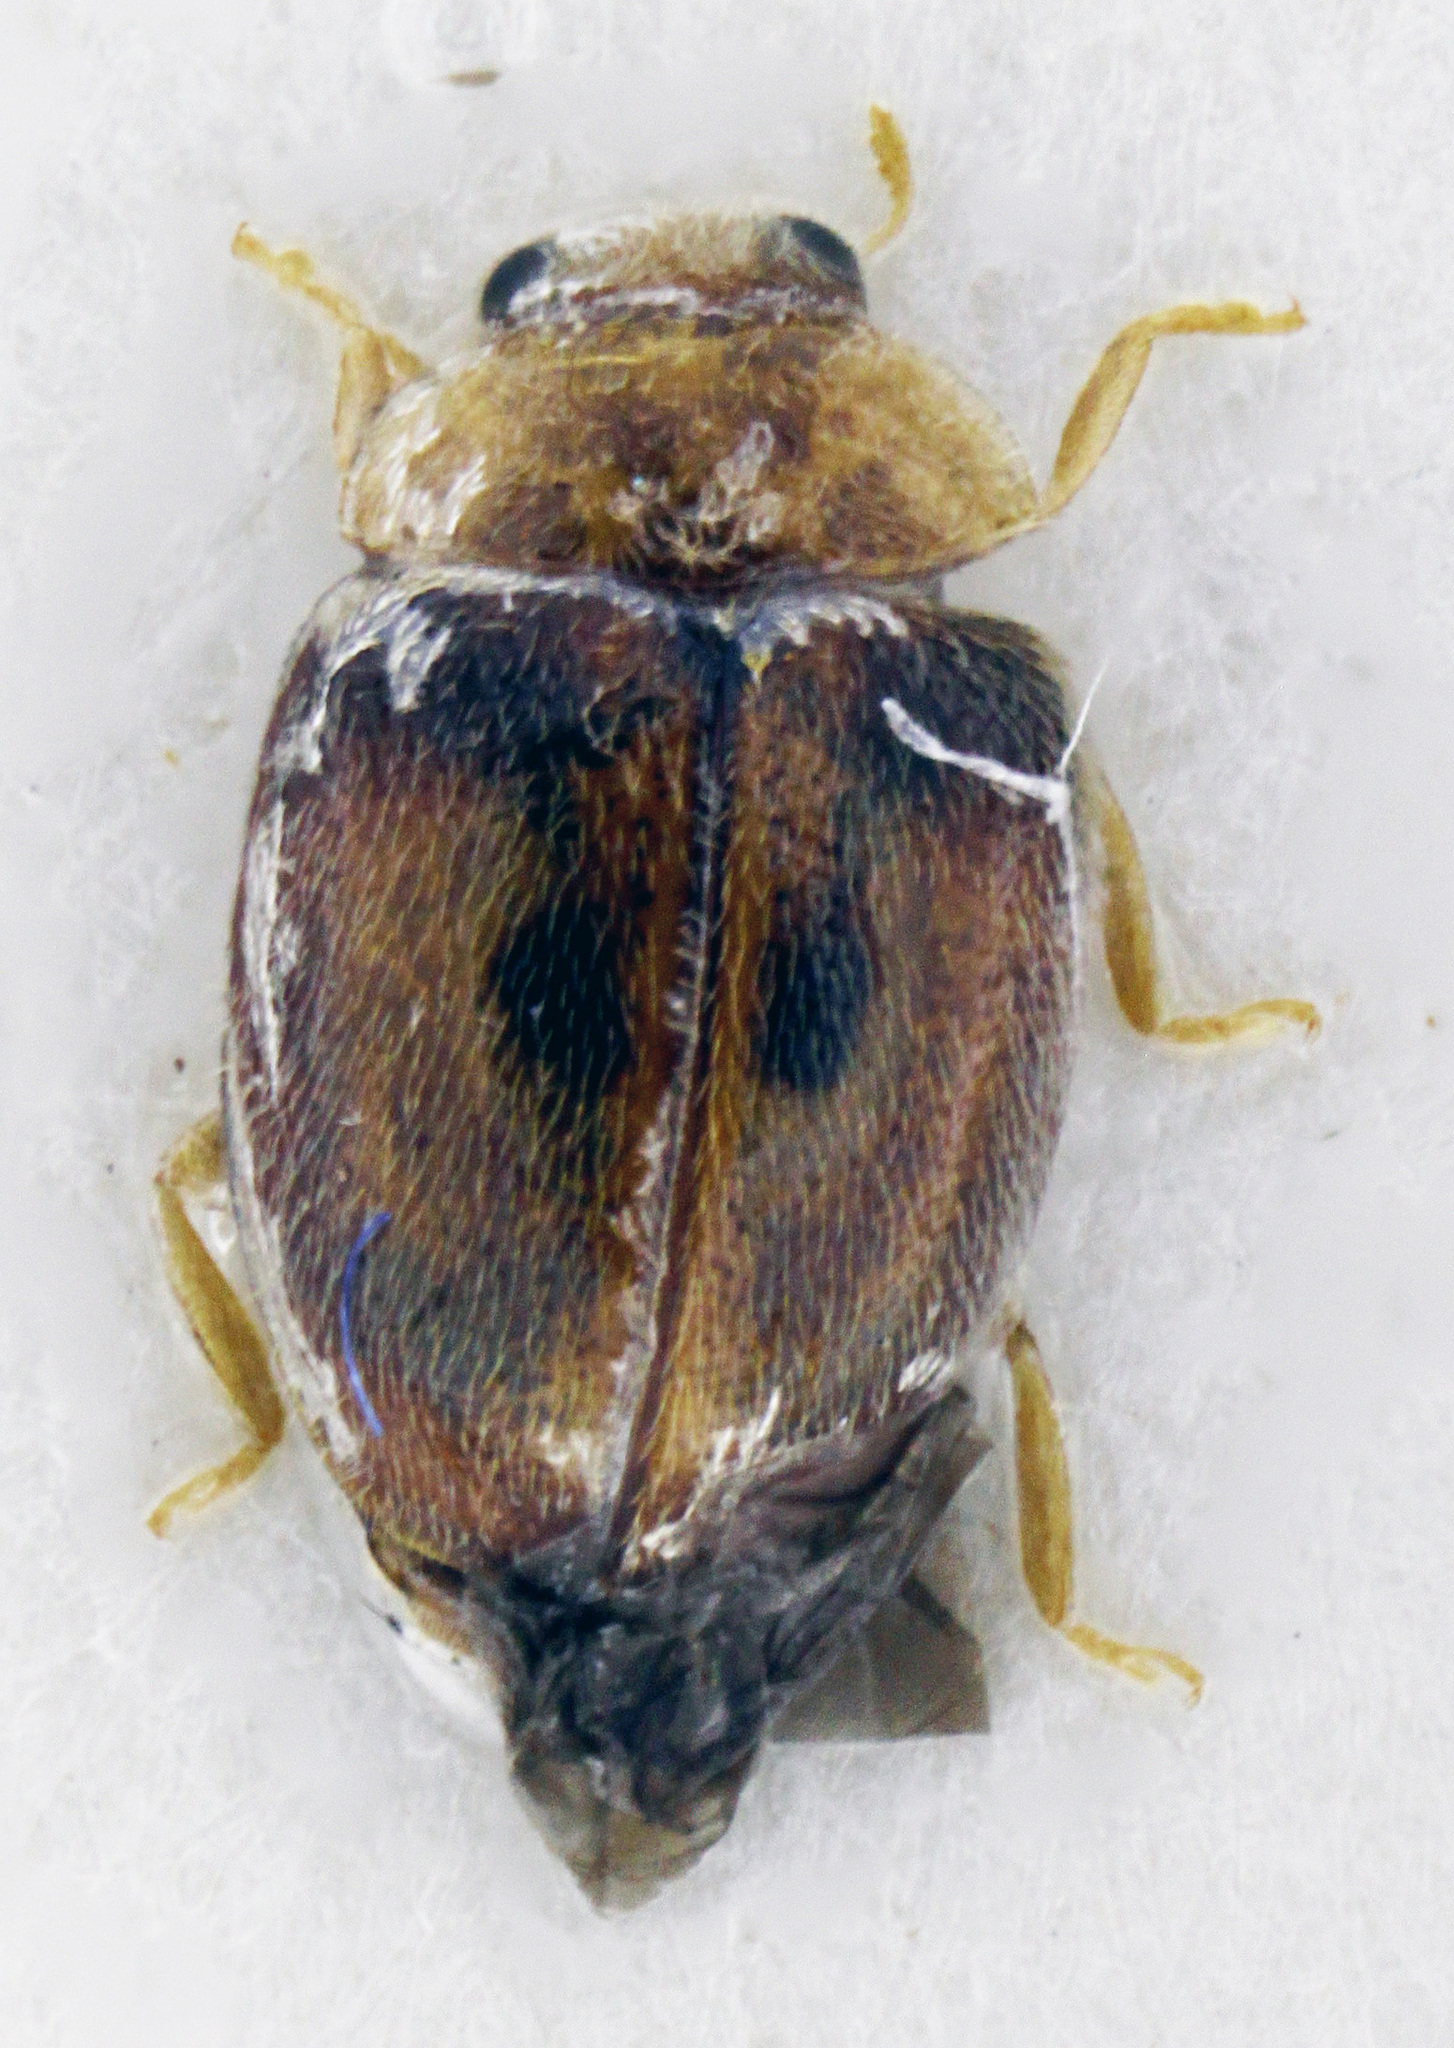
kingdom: Animalia
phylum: Arthropoda
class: Insecta
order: Coleoptera
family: Coccinellidae
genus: Clitostethus
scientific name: Clitostethus arcuatus
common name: Ladybird beetle
